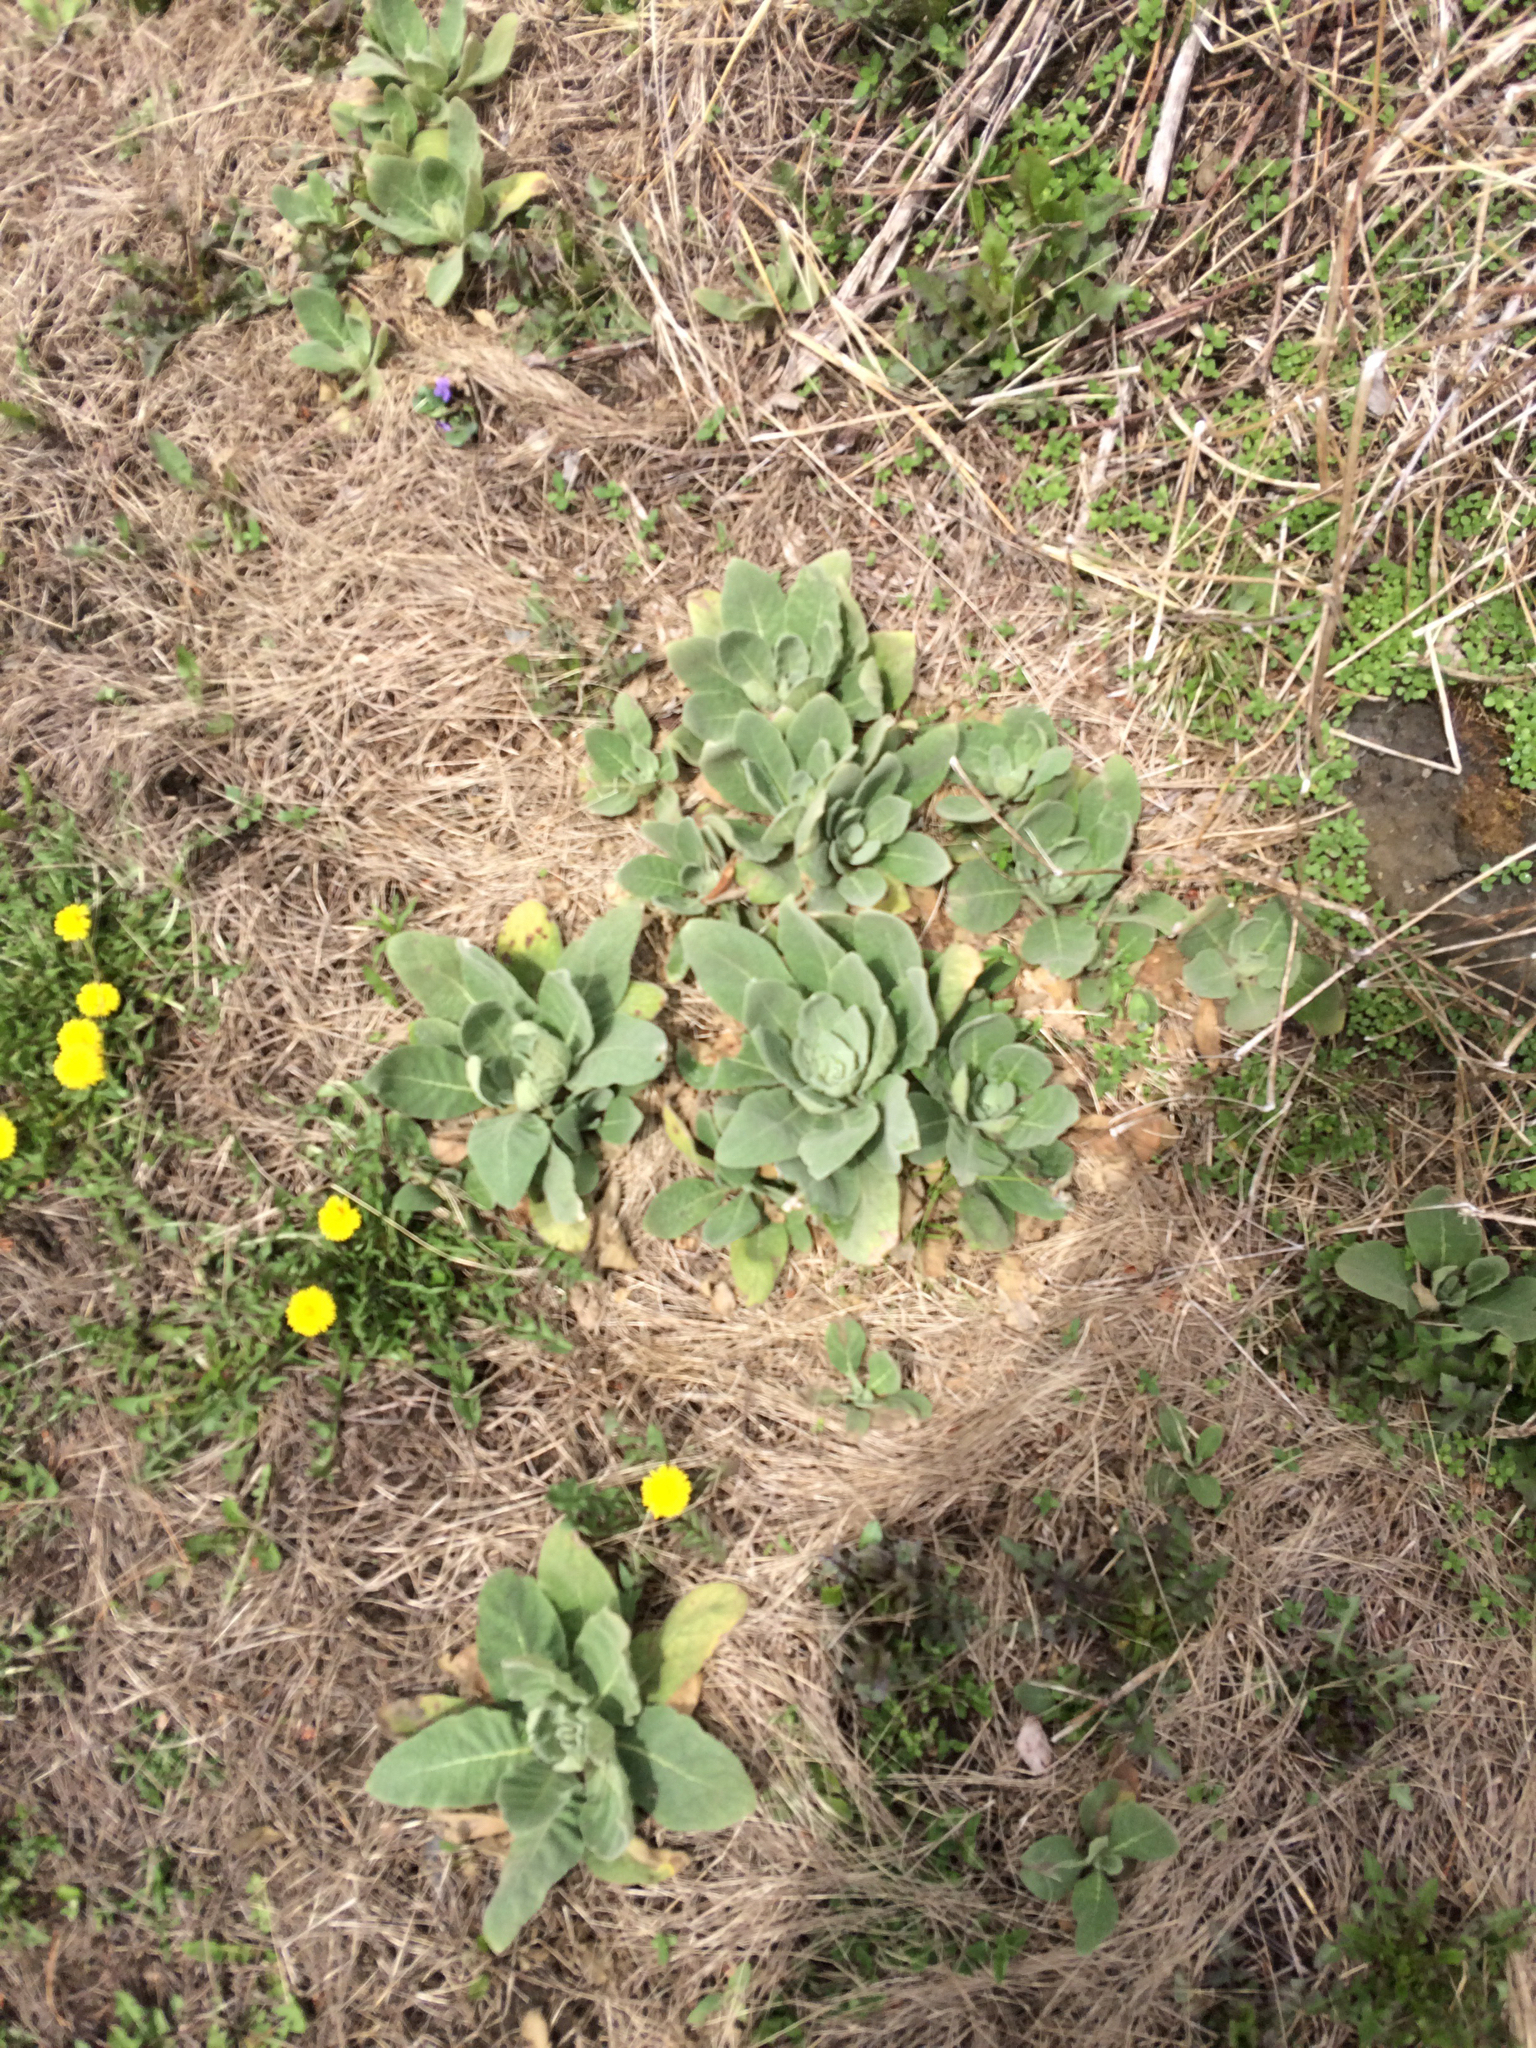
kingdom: Plantae
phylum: Tracheophyta
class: Magnoliopsida
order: Lamiales
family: Scrophulariaceae
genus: Verbascum
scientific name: Verbascum thapsus
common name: Common mullein
